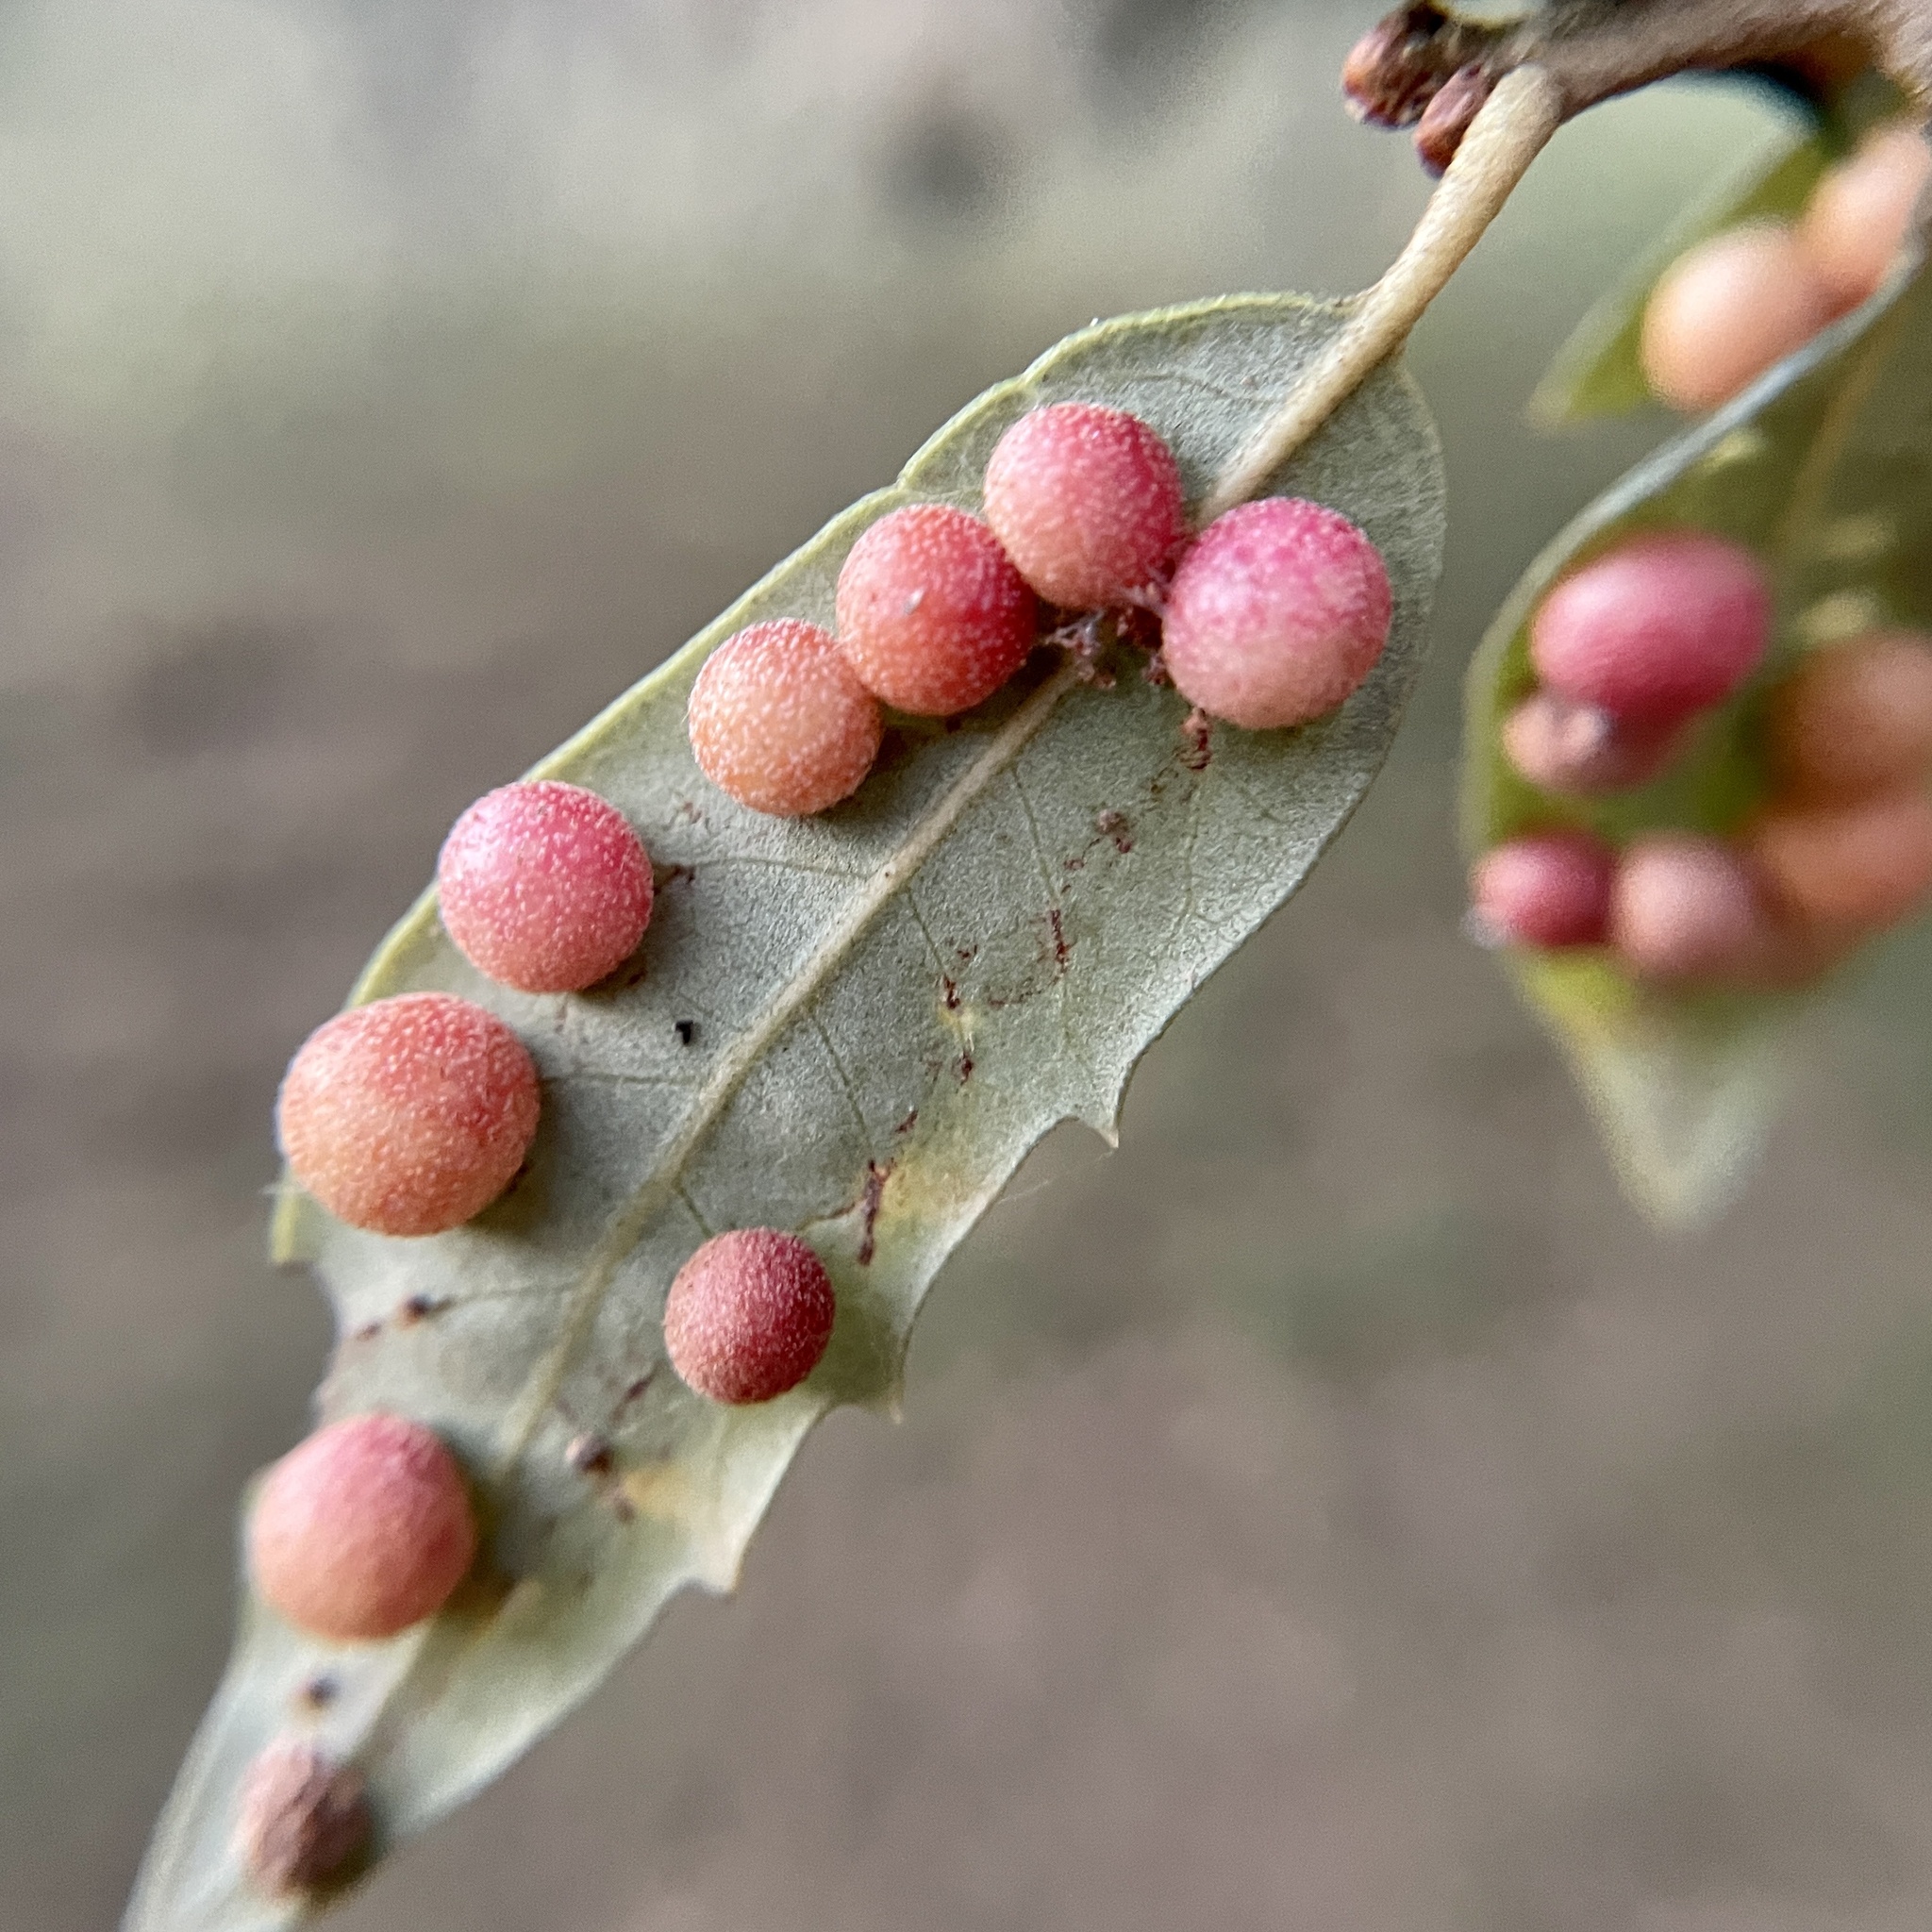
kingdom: Animalia
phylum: Arthropoda
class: Insecta
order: Hymenoptera
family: Cynipidae
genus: Belonocnema
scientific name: Belonocnema kinseyi
